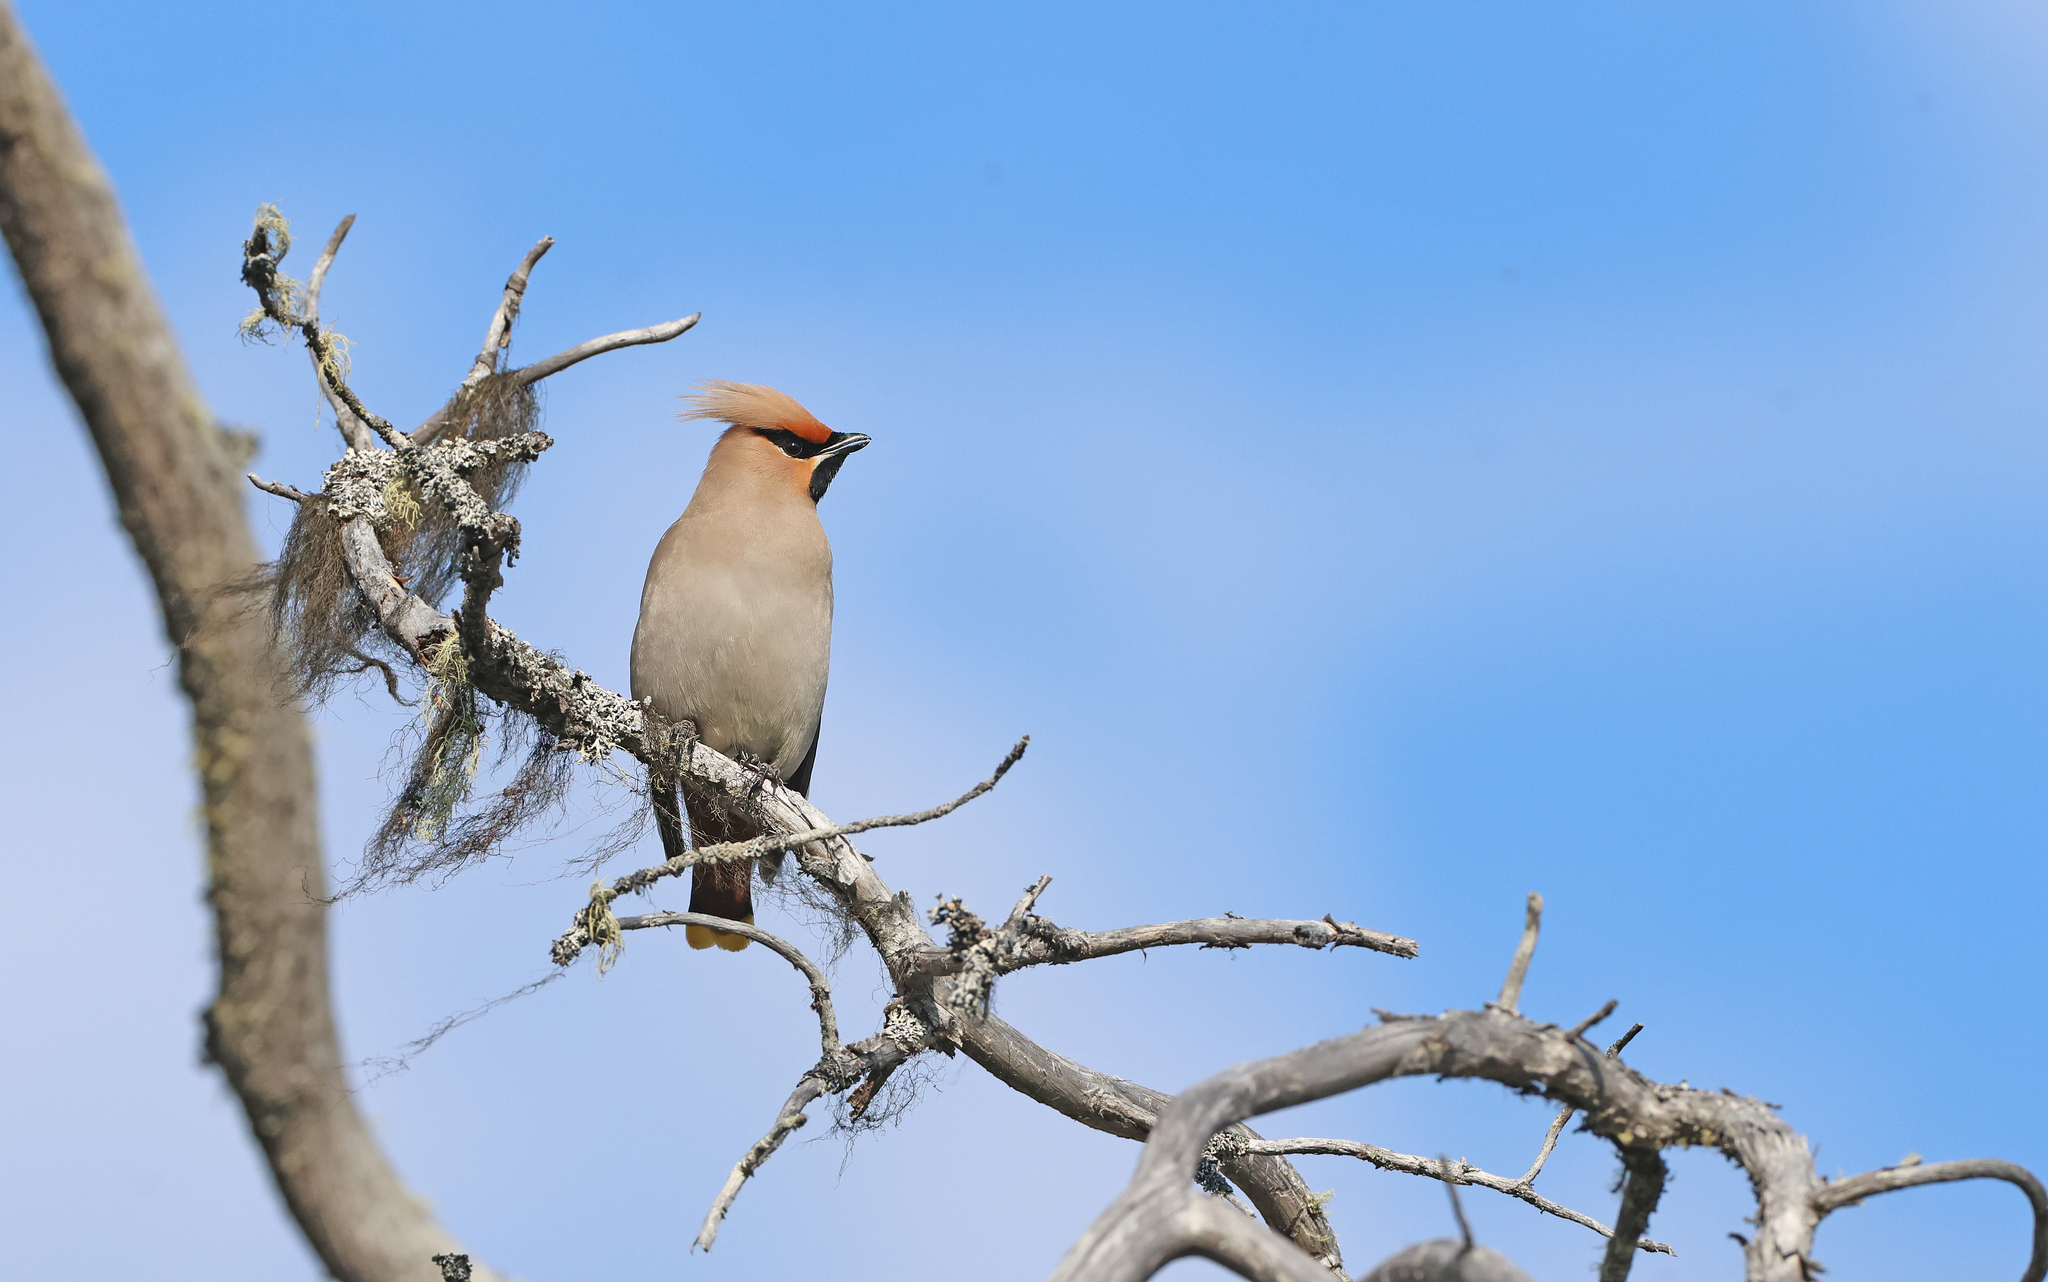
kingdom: Animalia
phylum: Chordata
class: Aves
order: Passeriformes
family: Bombycillidae
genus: Bombycilla
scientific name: Bombycilla garrulus
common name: Bohemian waxwing
